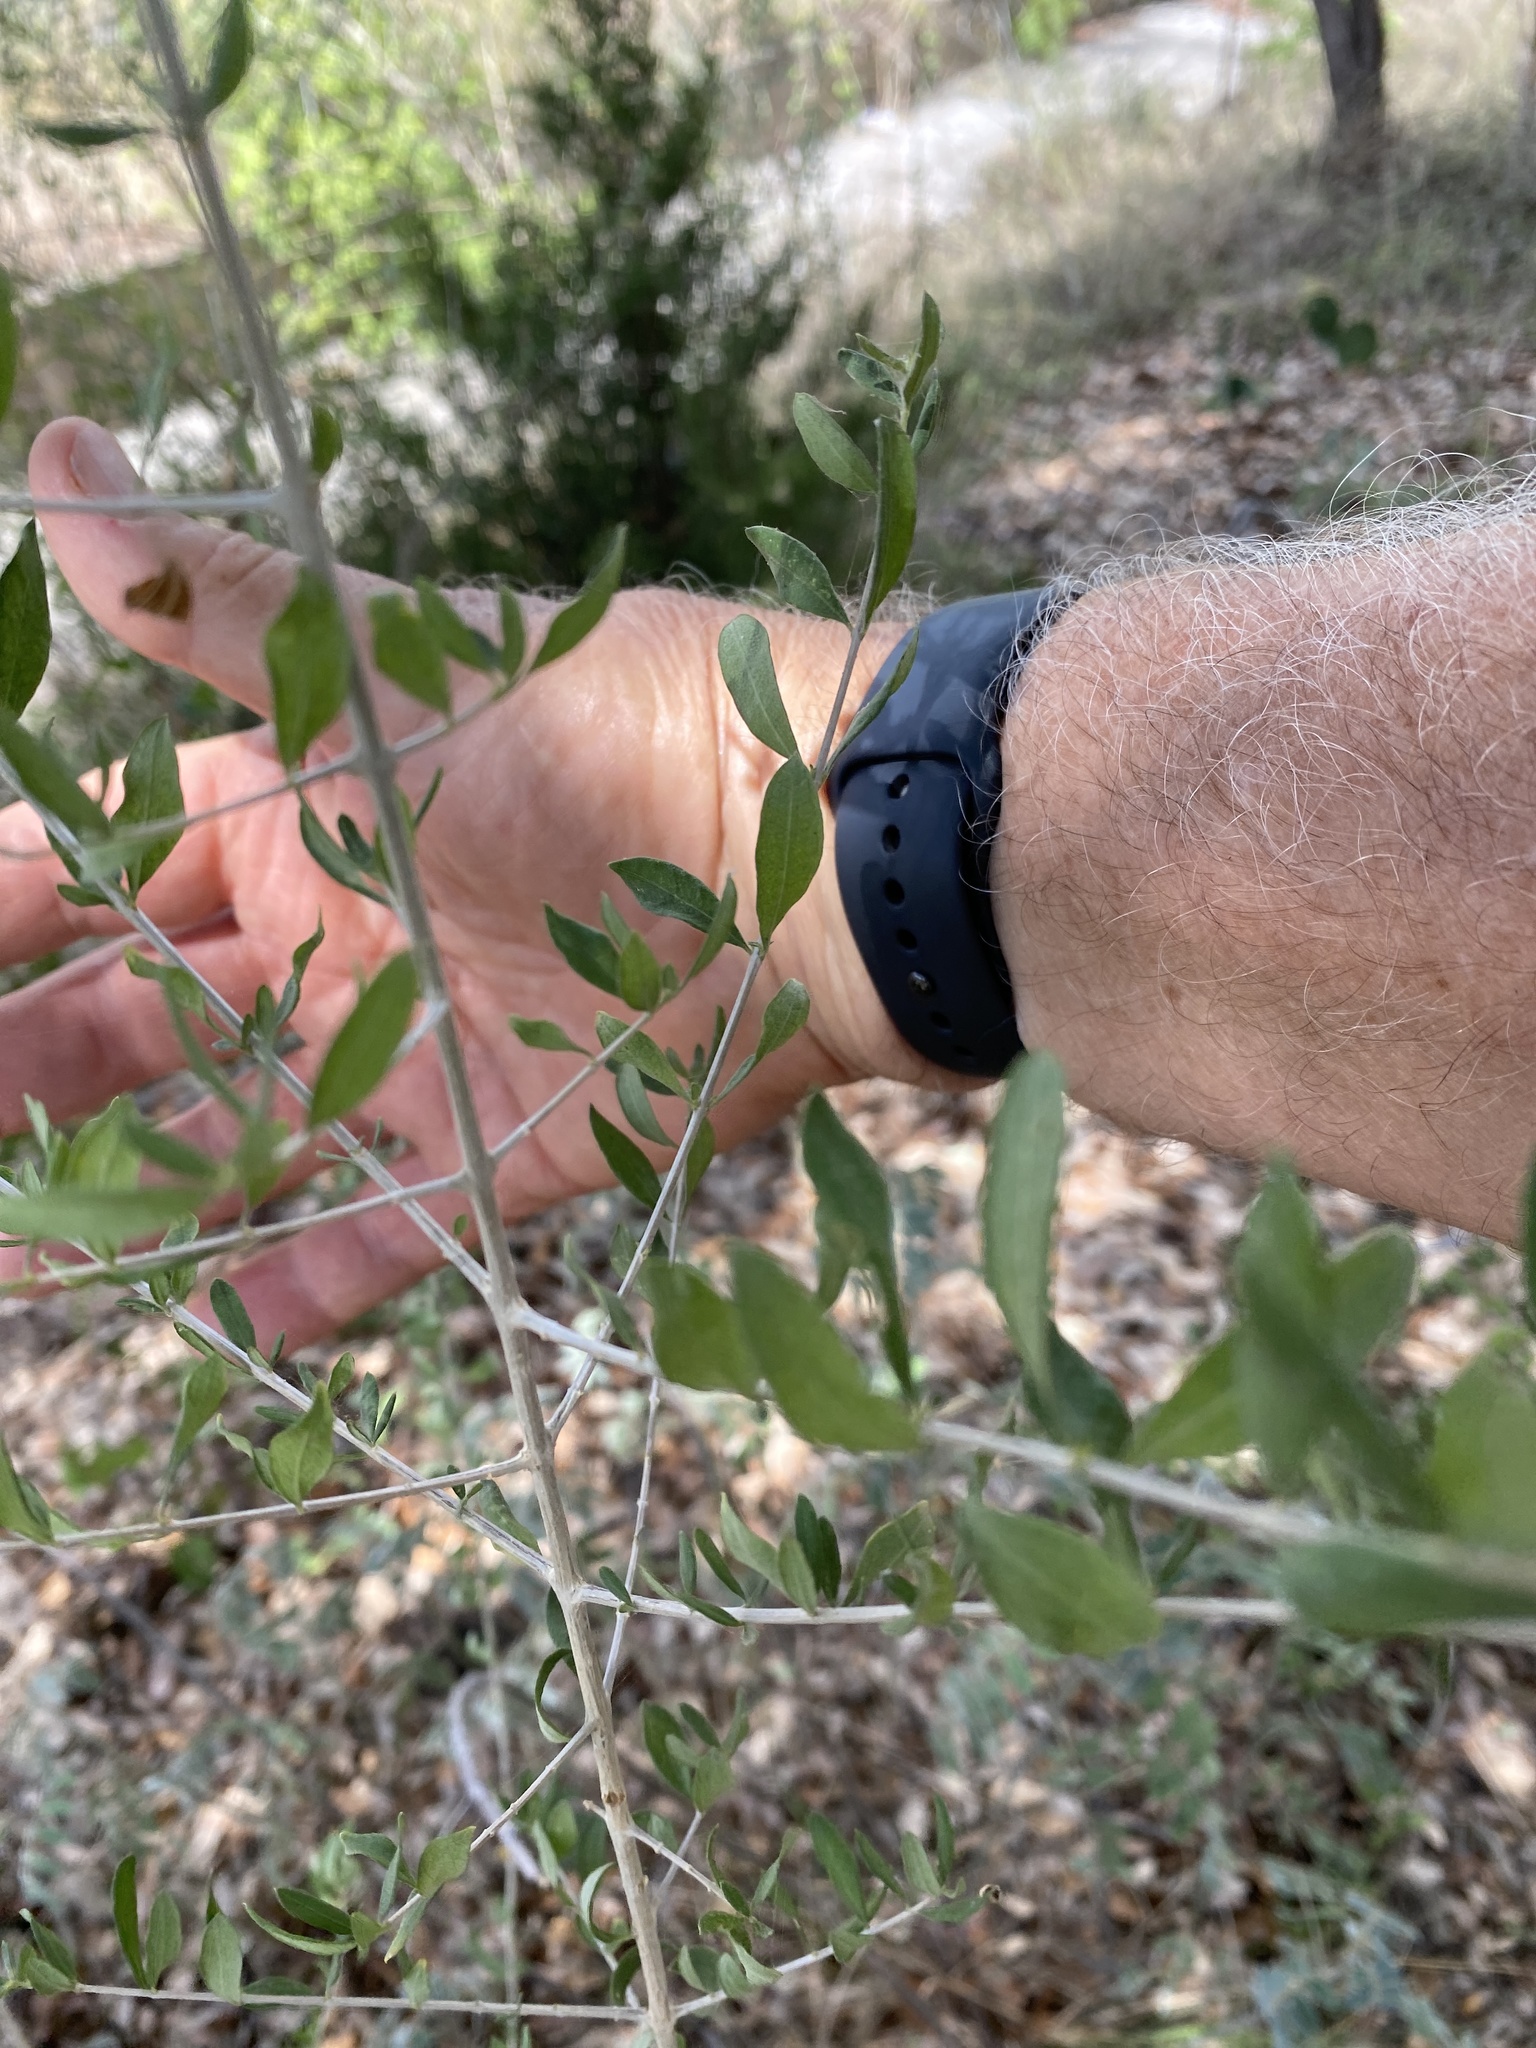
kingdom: Plantae
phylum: Tracheophyta
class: Magnoliopsida
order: Lamiales
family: Verbenaceae
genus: Aloysia
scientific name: Aloysia gratissima
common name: Common bee-brush
